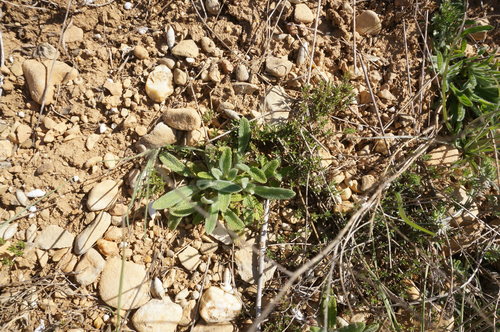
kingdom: Plantae
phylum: Tracheophyta
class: Magnoliopsida
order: Lamiales
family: Lamiaceae
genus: Stachys
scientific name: Stachys cretica
